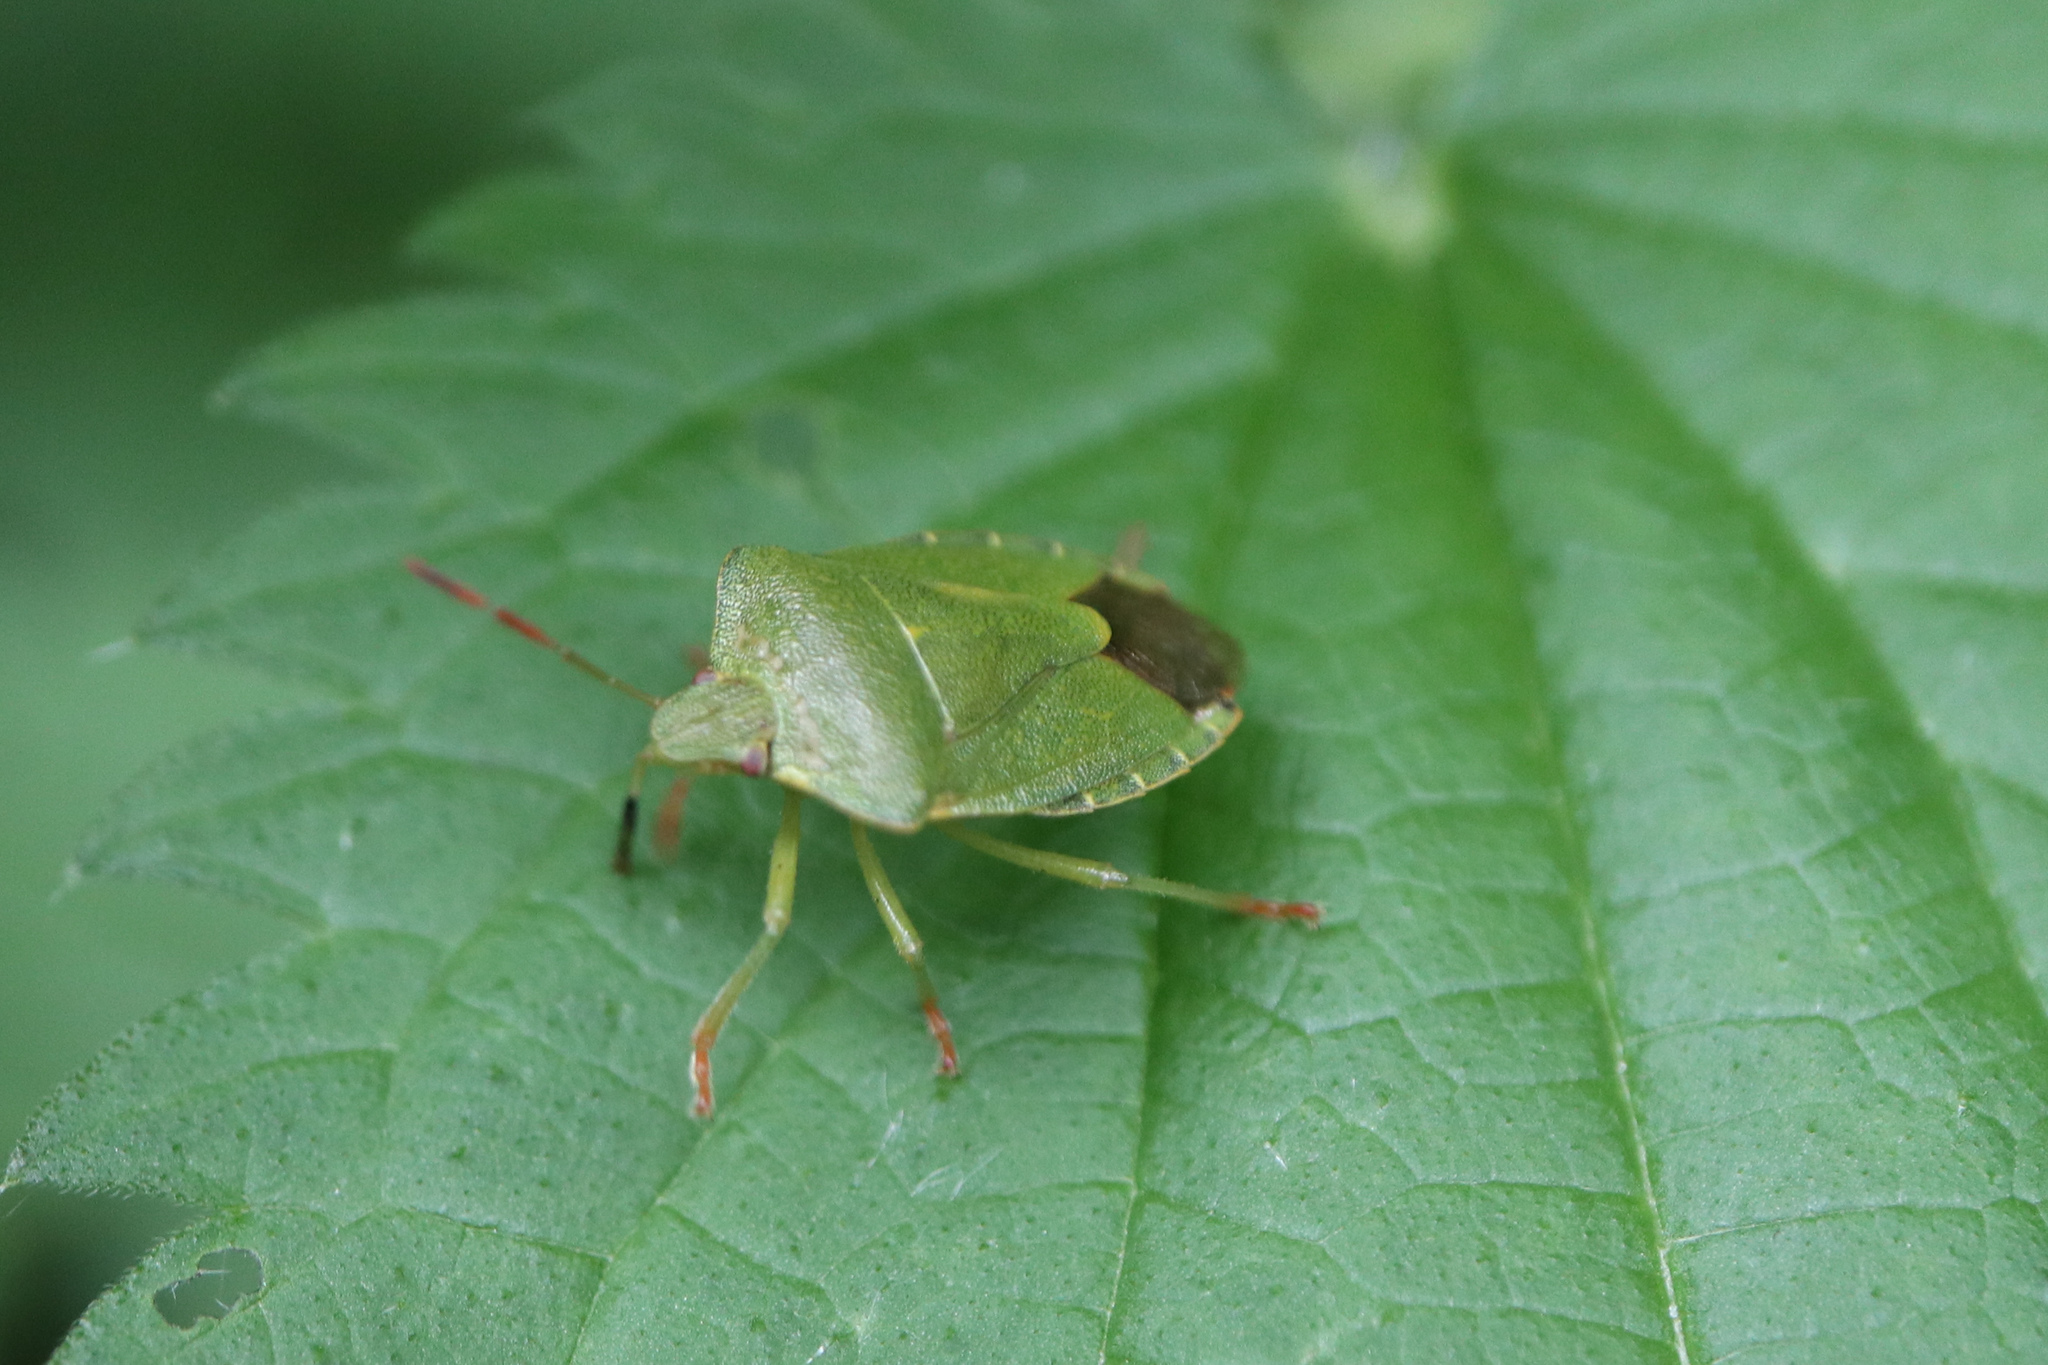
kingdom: Animalia
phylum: Arthropoda
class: Insecta
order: Hemiptera
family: Pentatomidae
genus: Palomena
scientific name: Palomena prasina
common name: Green shieldbug
